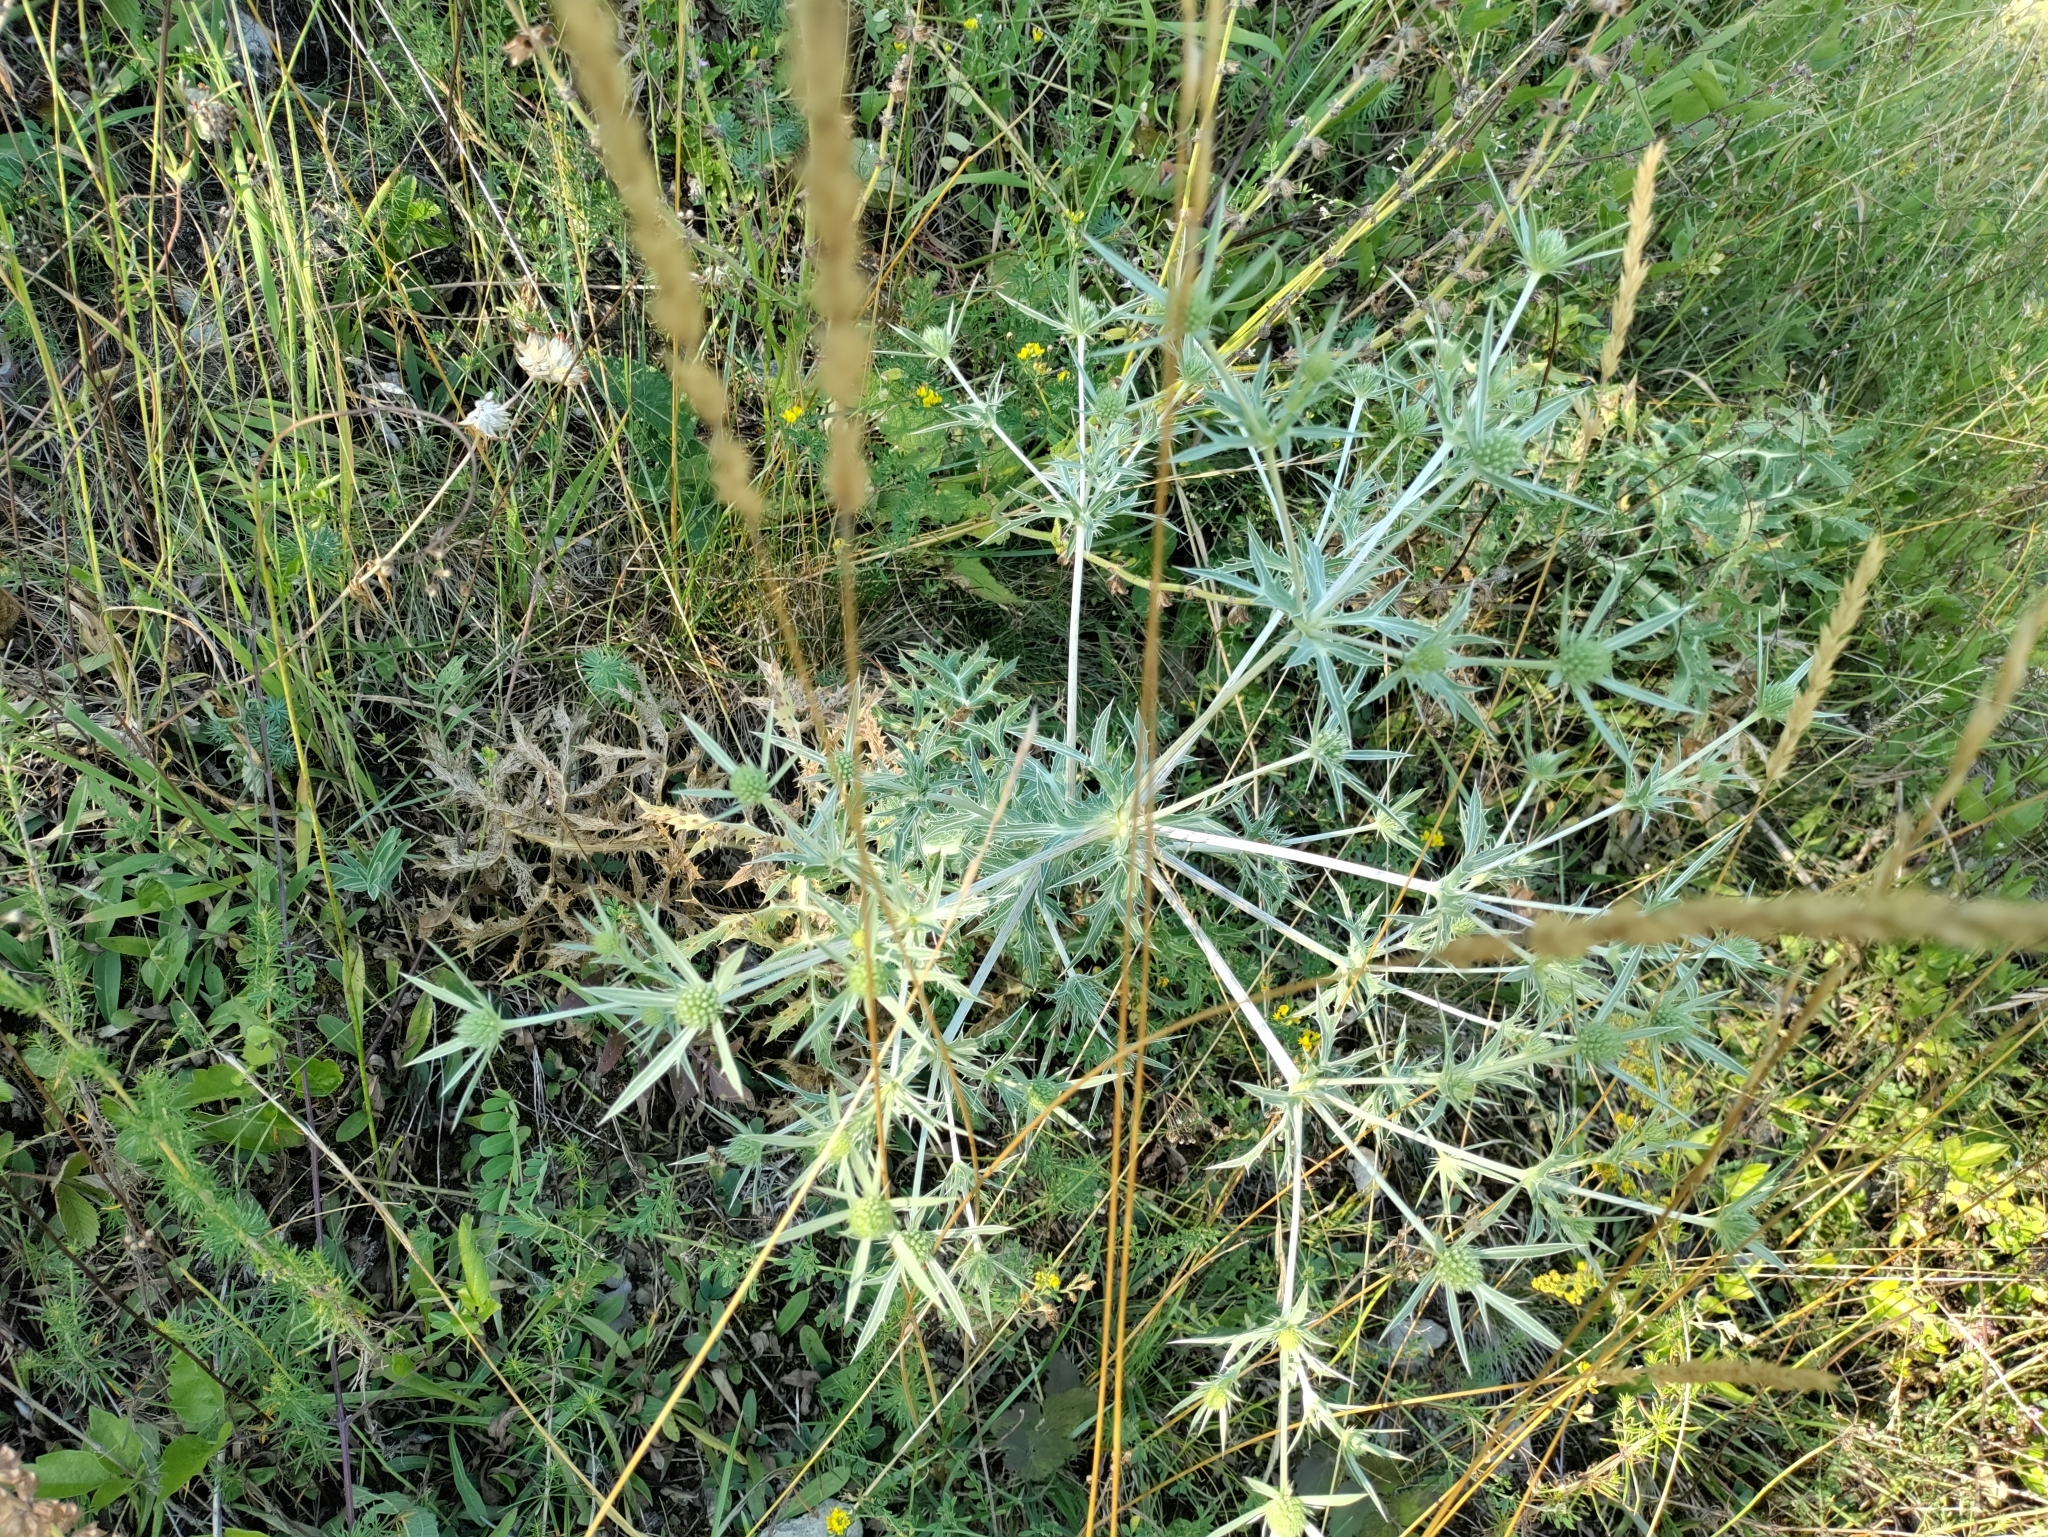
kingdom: Plantae
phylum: Tracheophyta
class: Magnoliopsida
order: Apiales
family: Apiaceae
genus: Eryngium
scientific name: Eryngium campestre
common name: Field eryngo
